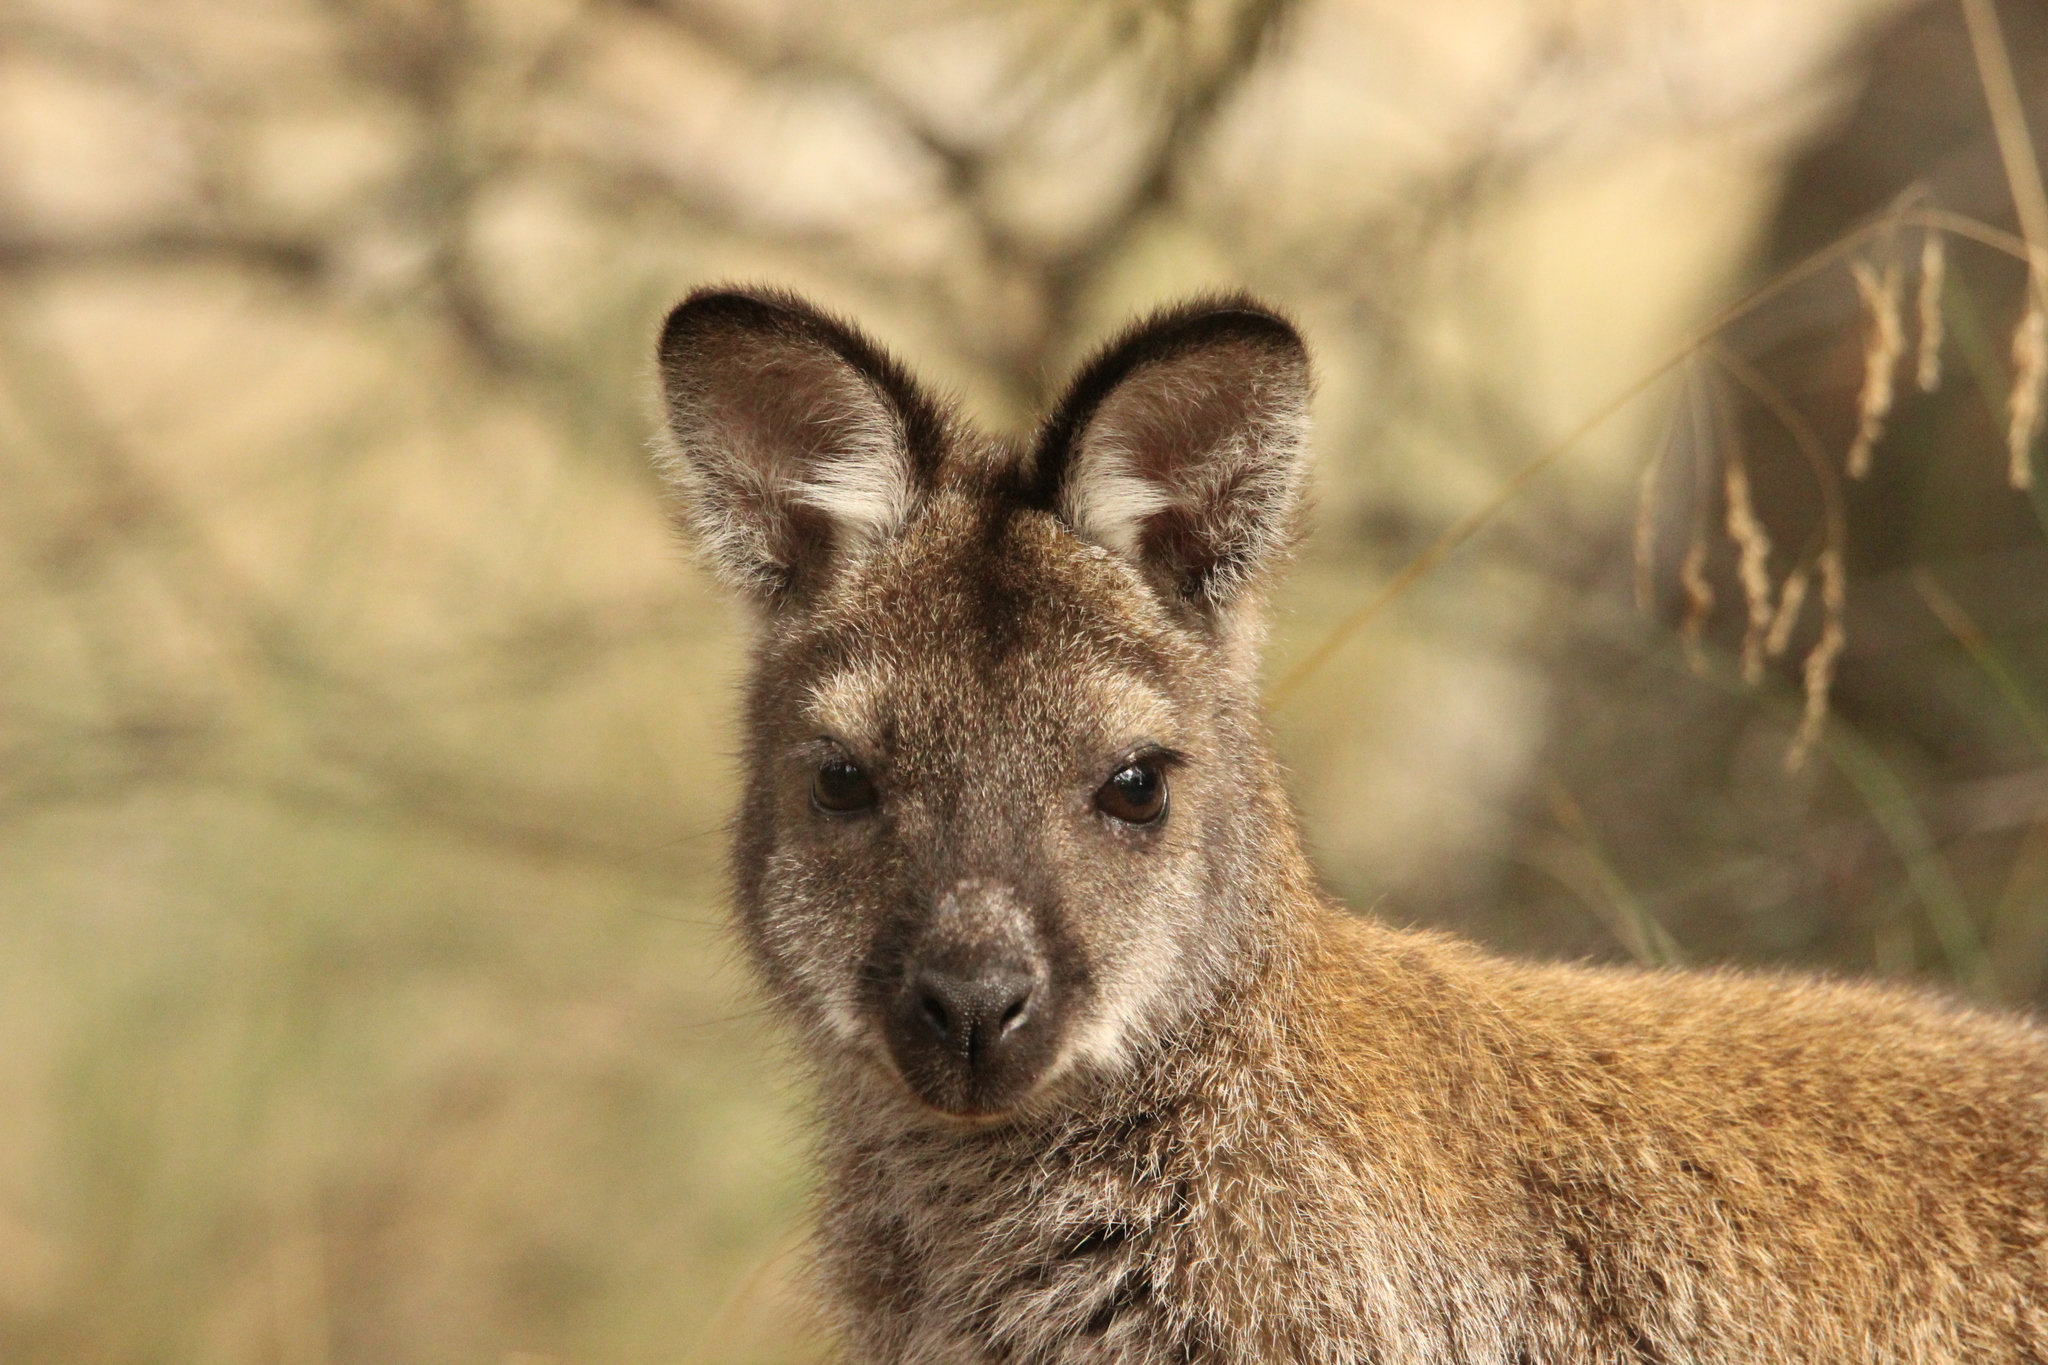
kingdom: Animalia
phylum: Chordata
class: Mammalia
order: Diprotodontia
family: Macropodidae
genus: Notamacropus
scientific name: Notamacropus rufogriseus
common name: Red-necked wallaby
